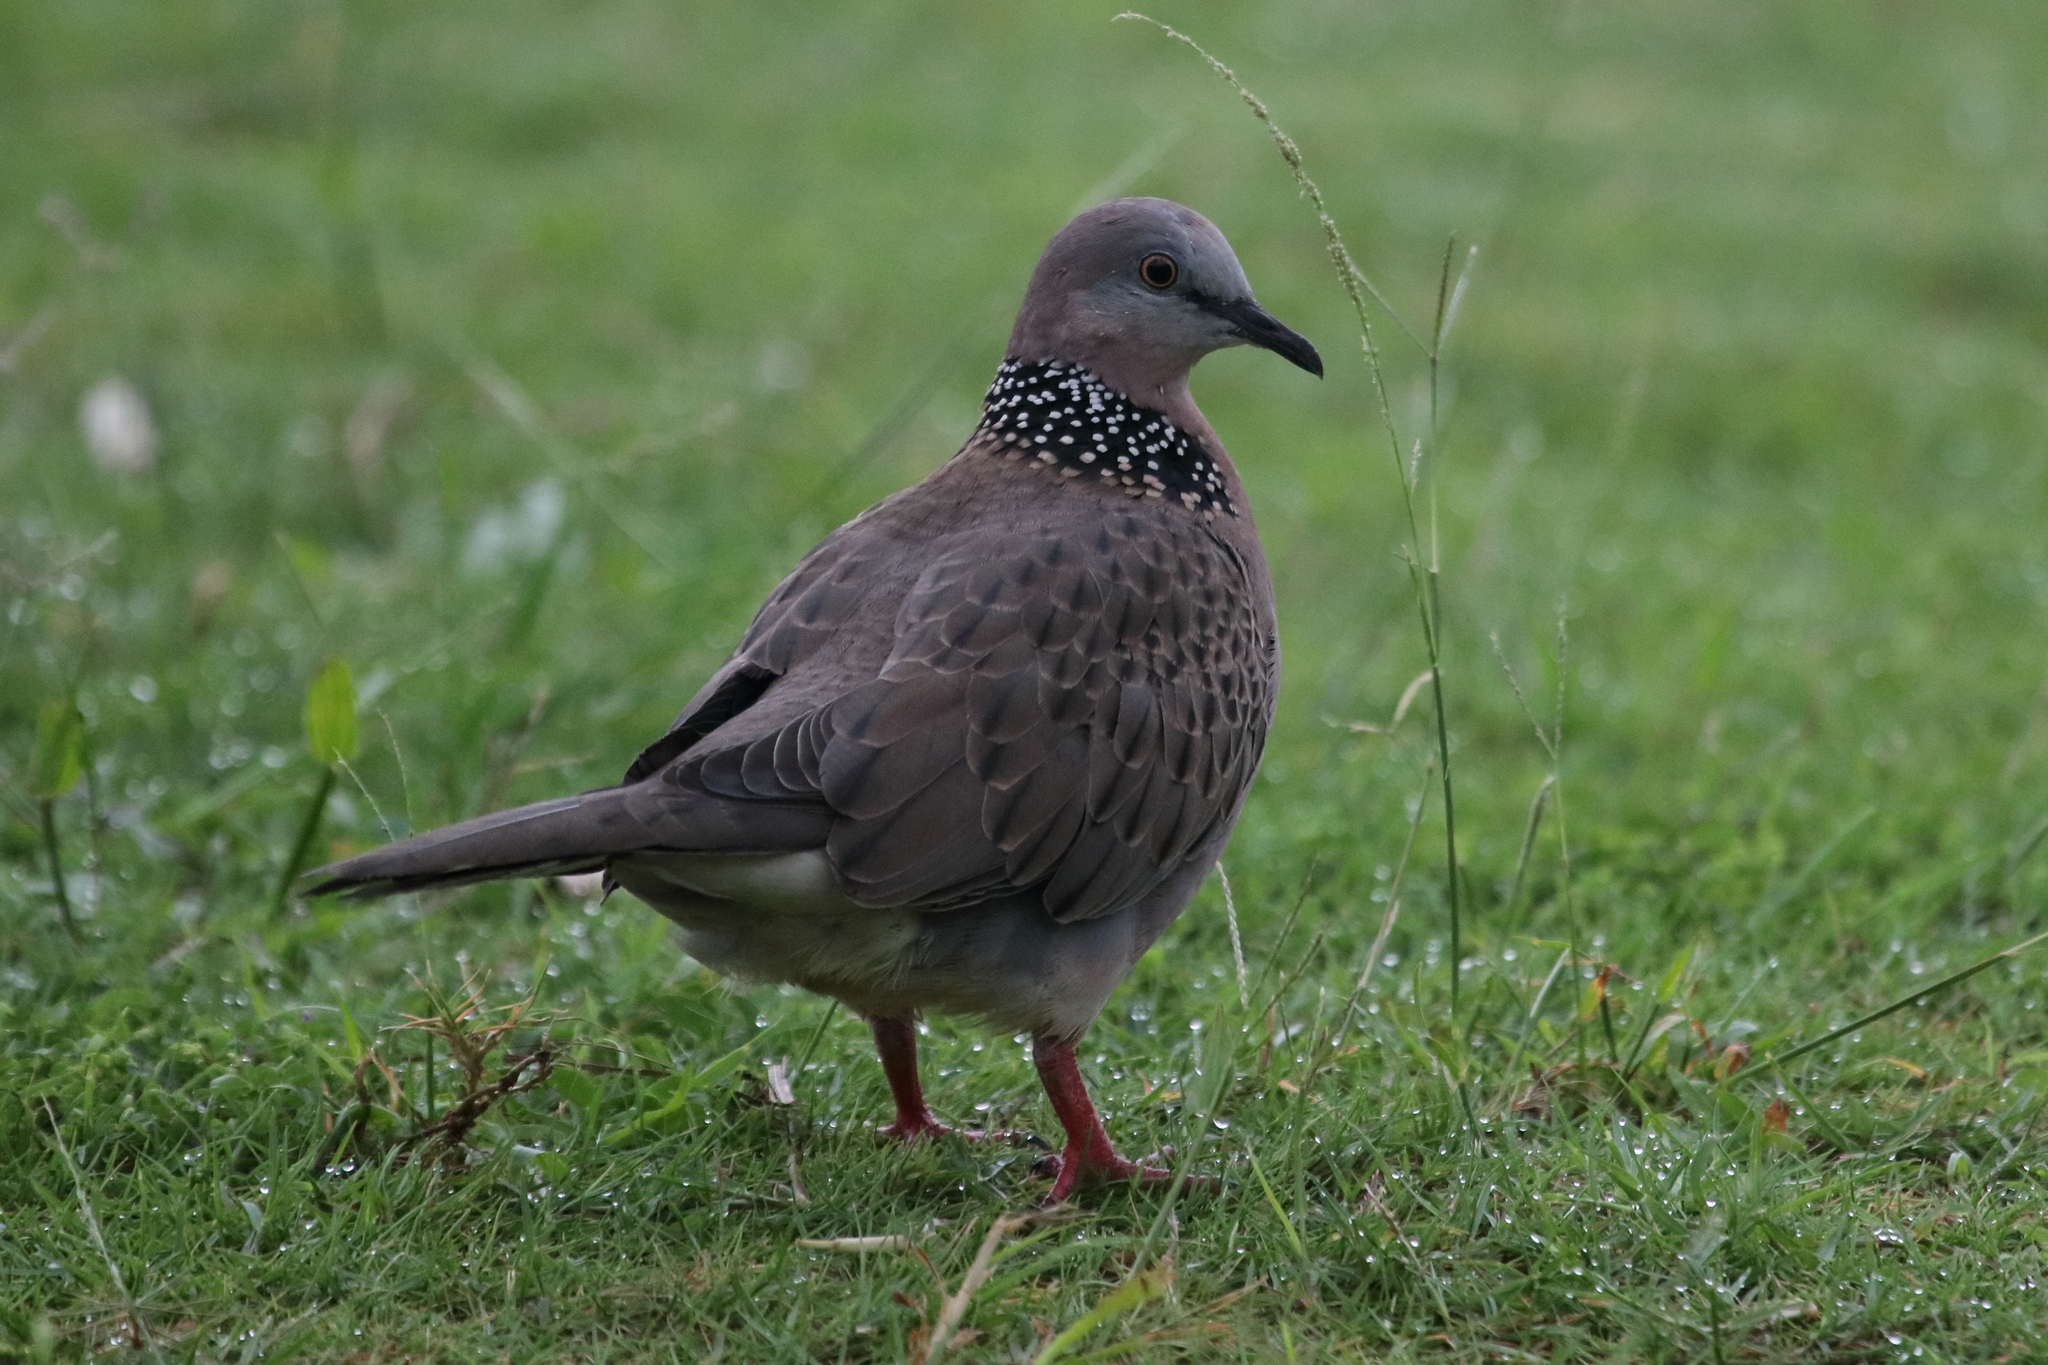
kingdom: Animalia
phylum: Chordata
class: Aves
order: Columbiformes
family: Columbidae
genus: Spilopelia
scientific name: Spilopelia chinensis
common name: Spotted dove
